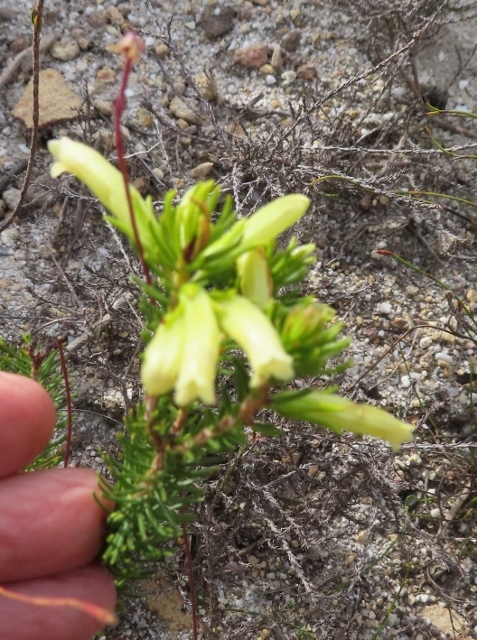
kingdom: Plantae
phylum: Tracheophyta
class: Magnoliopsida
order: Ericales
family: Ericaceae
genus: Erica
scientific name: Erica viscaria
